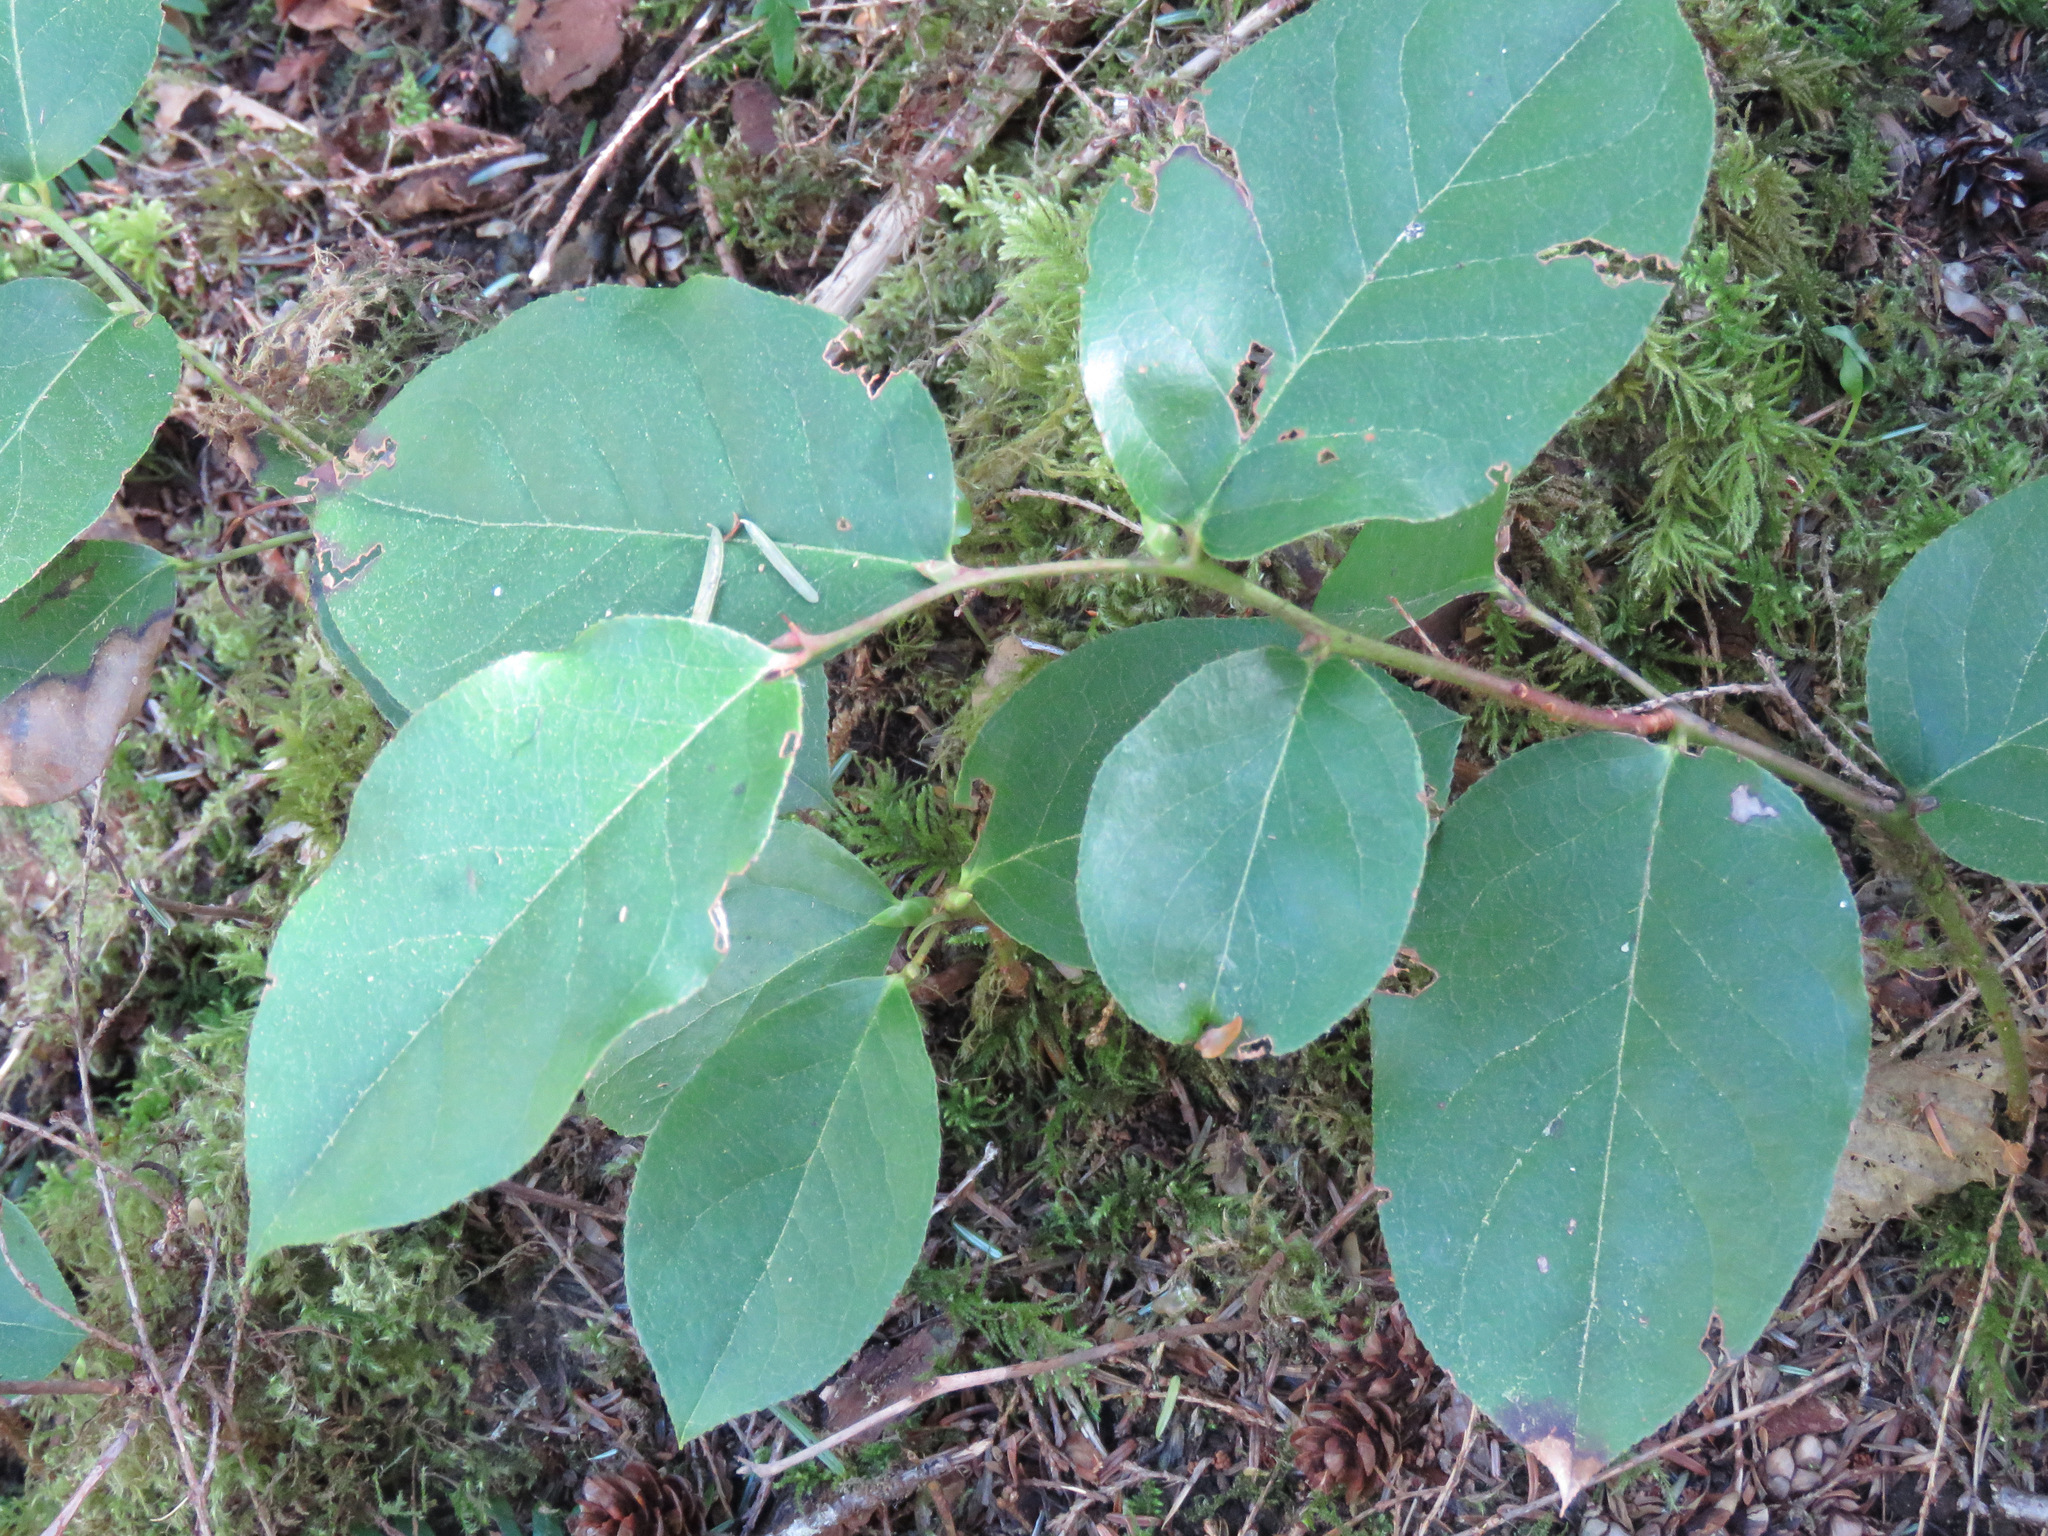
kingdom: Plantae
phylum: Tracheophyta
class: Magnoliopsida
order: Ericales
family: Ericaceae
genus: Gaultheria
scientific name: Gaultheria shallon
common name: Shallon
